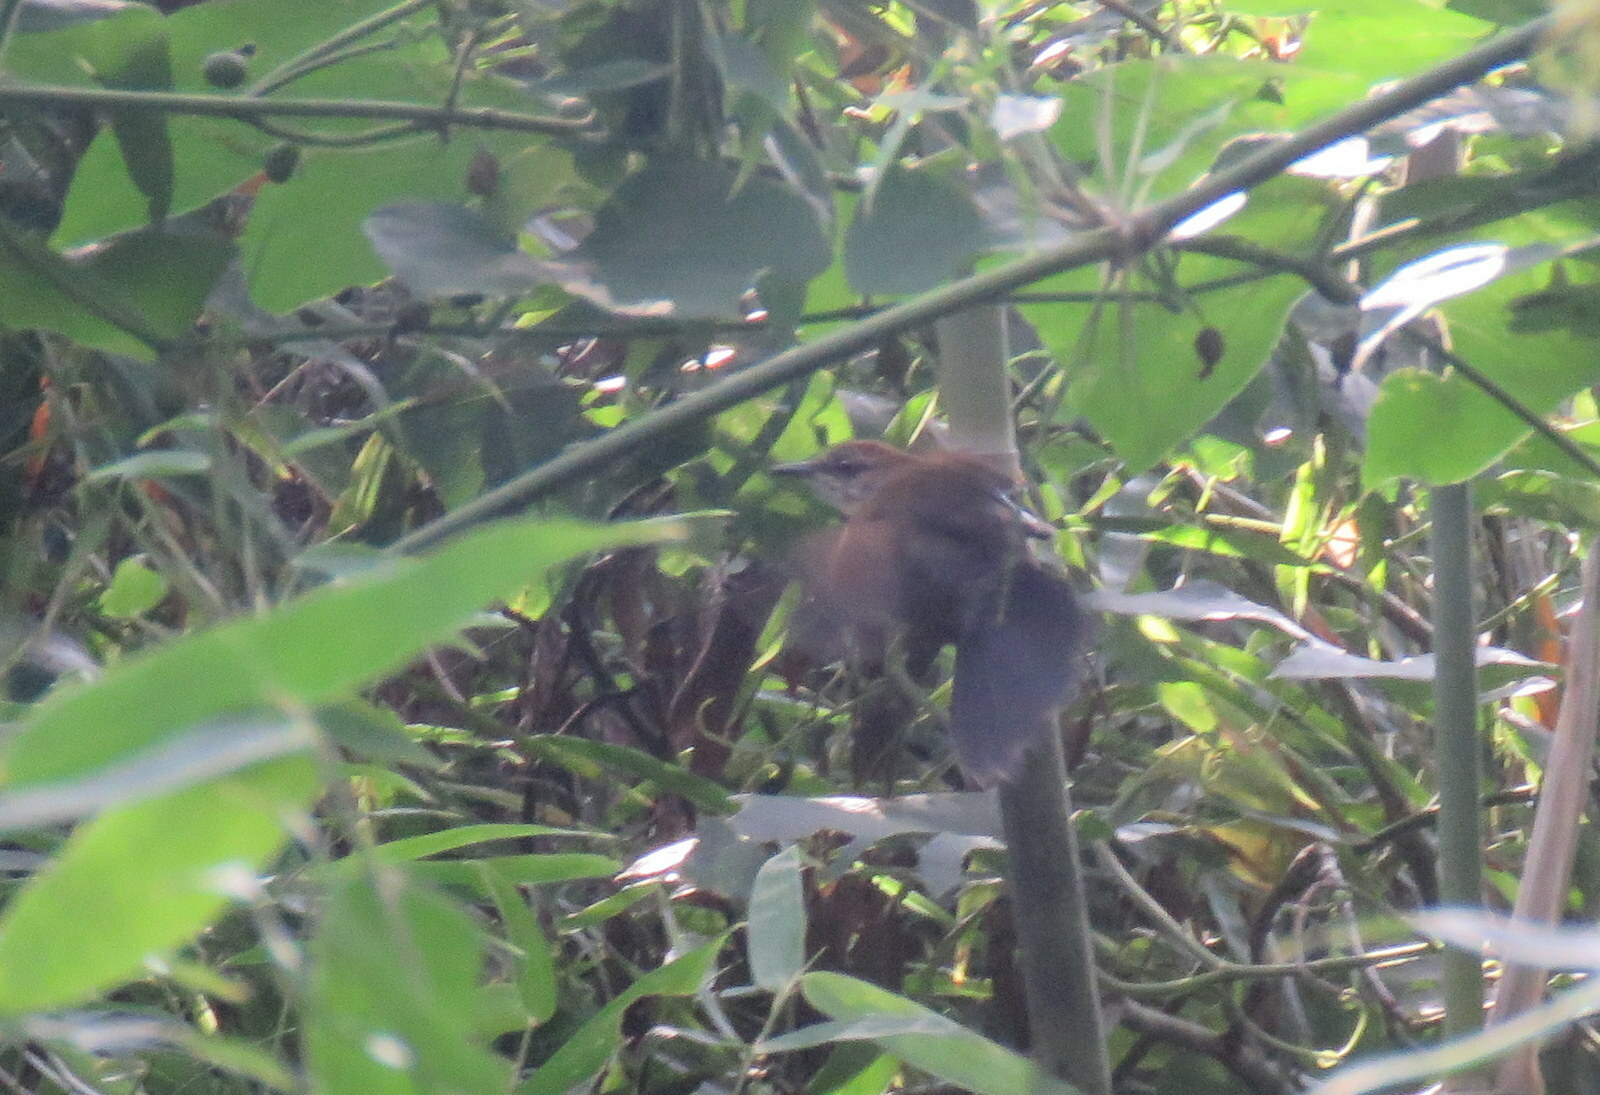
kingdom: Animalia
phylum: Chordata
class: Aves
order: Passeriformes
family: Thamnophilidae
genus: Pyriglena
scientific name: Pyriglena leucoptera
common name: White-shouldered fire-eye
